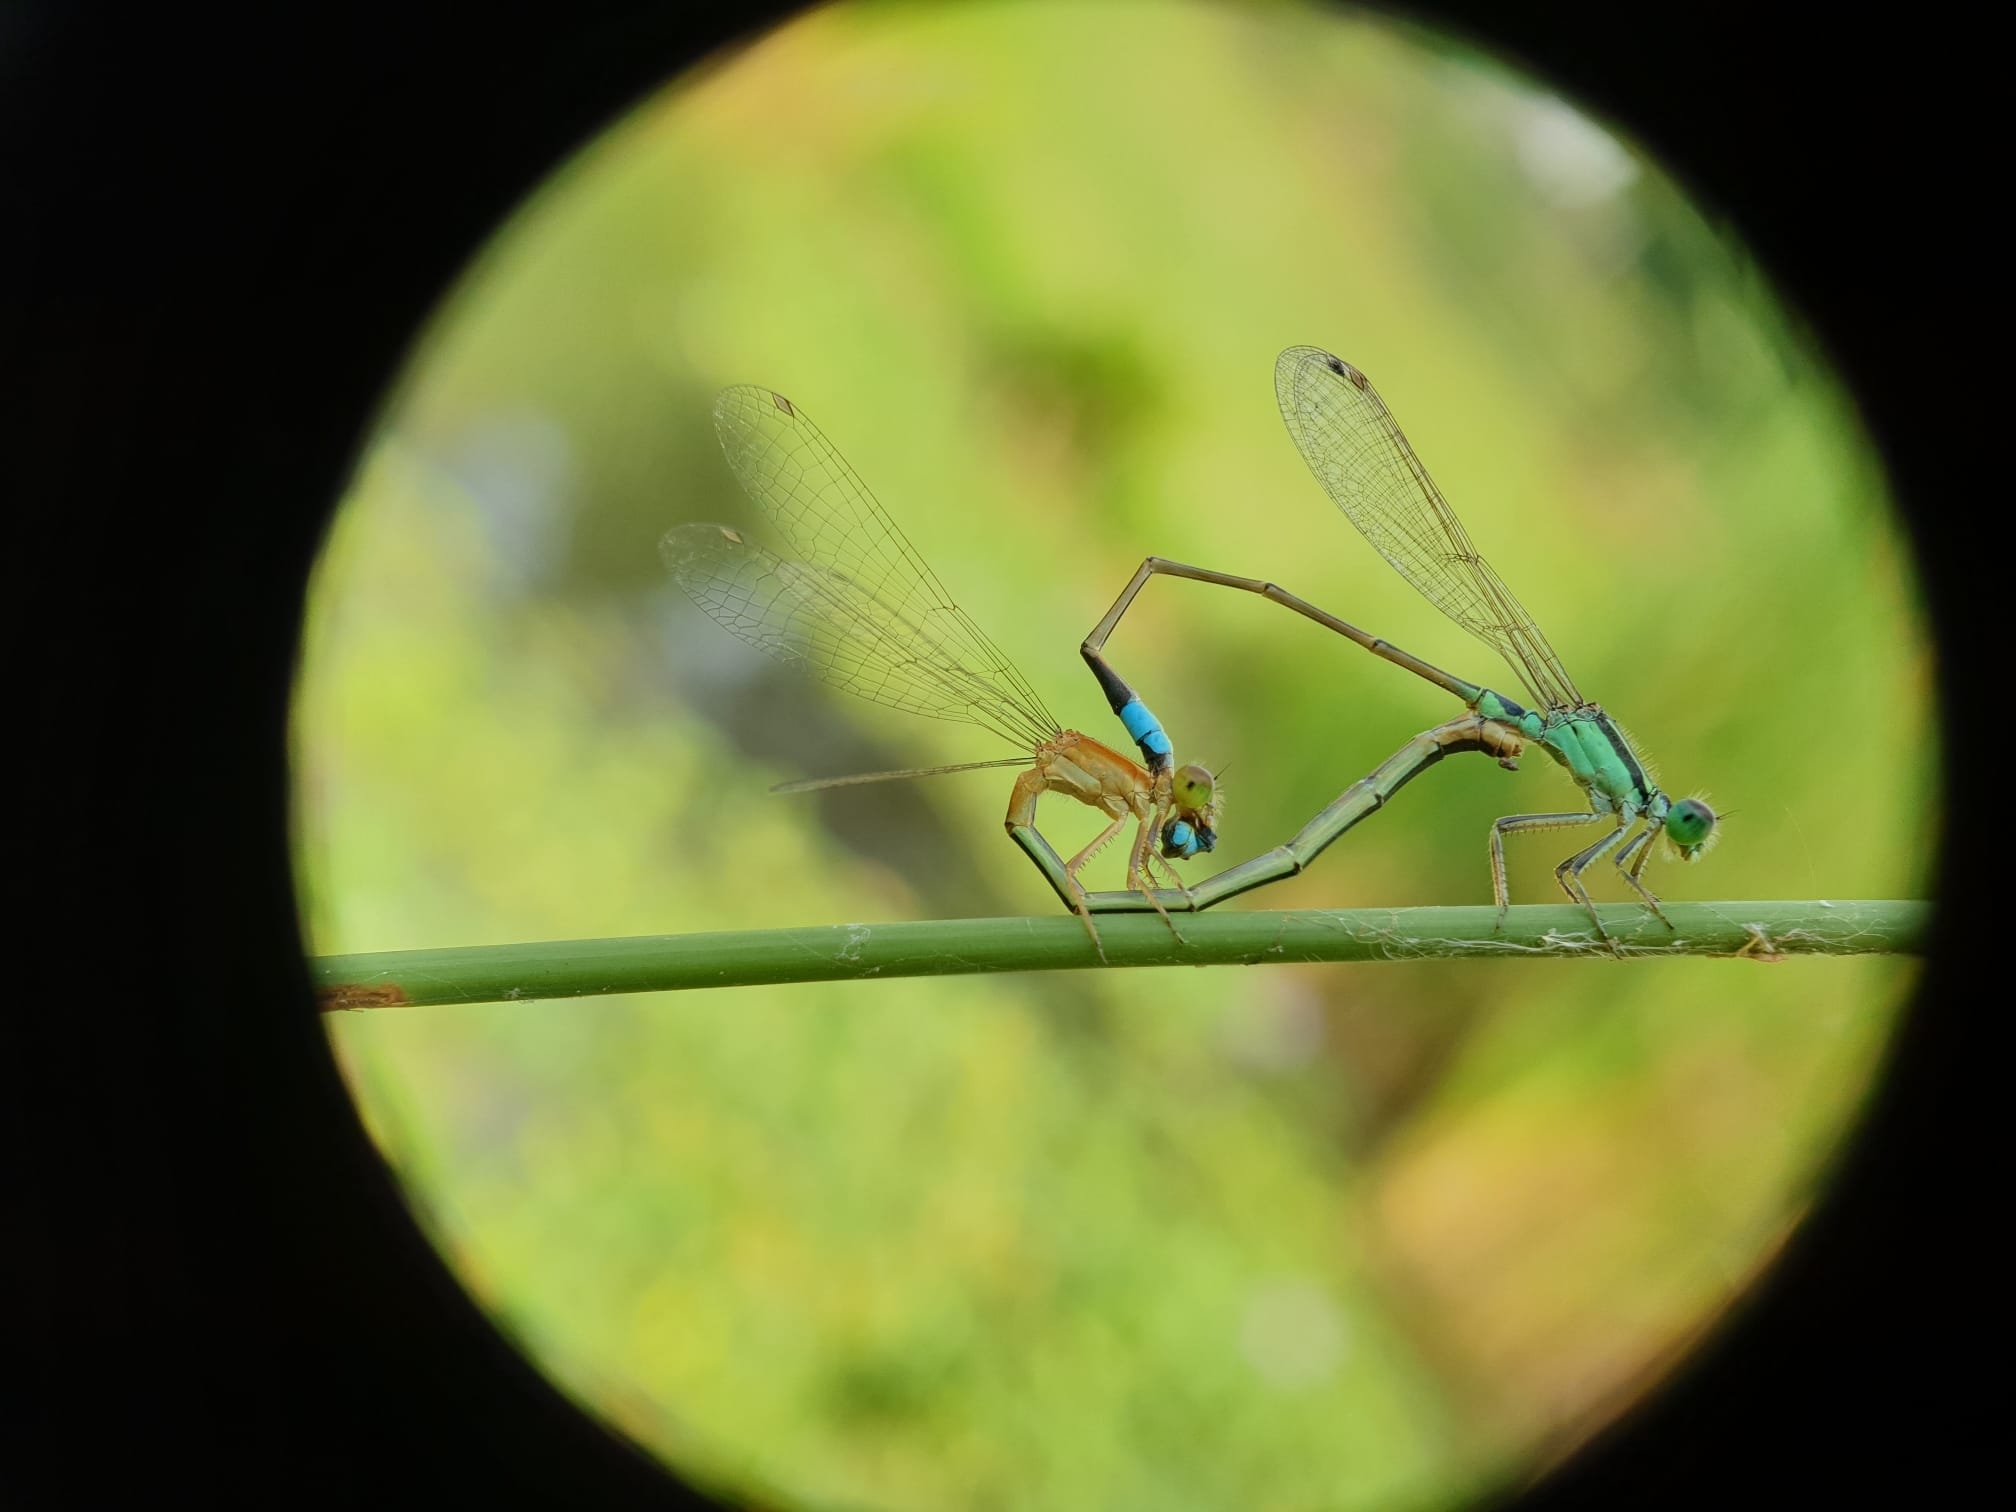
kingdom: Animalia
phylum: Arthropoda
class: Insecta
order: Odonata
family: Coenagrionidae
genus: Ischnura
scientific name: Ischnura senegalensis
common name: Tropical bluetail
